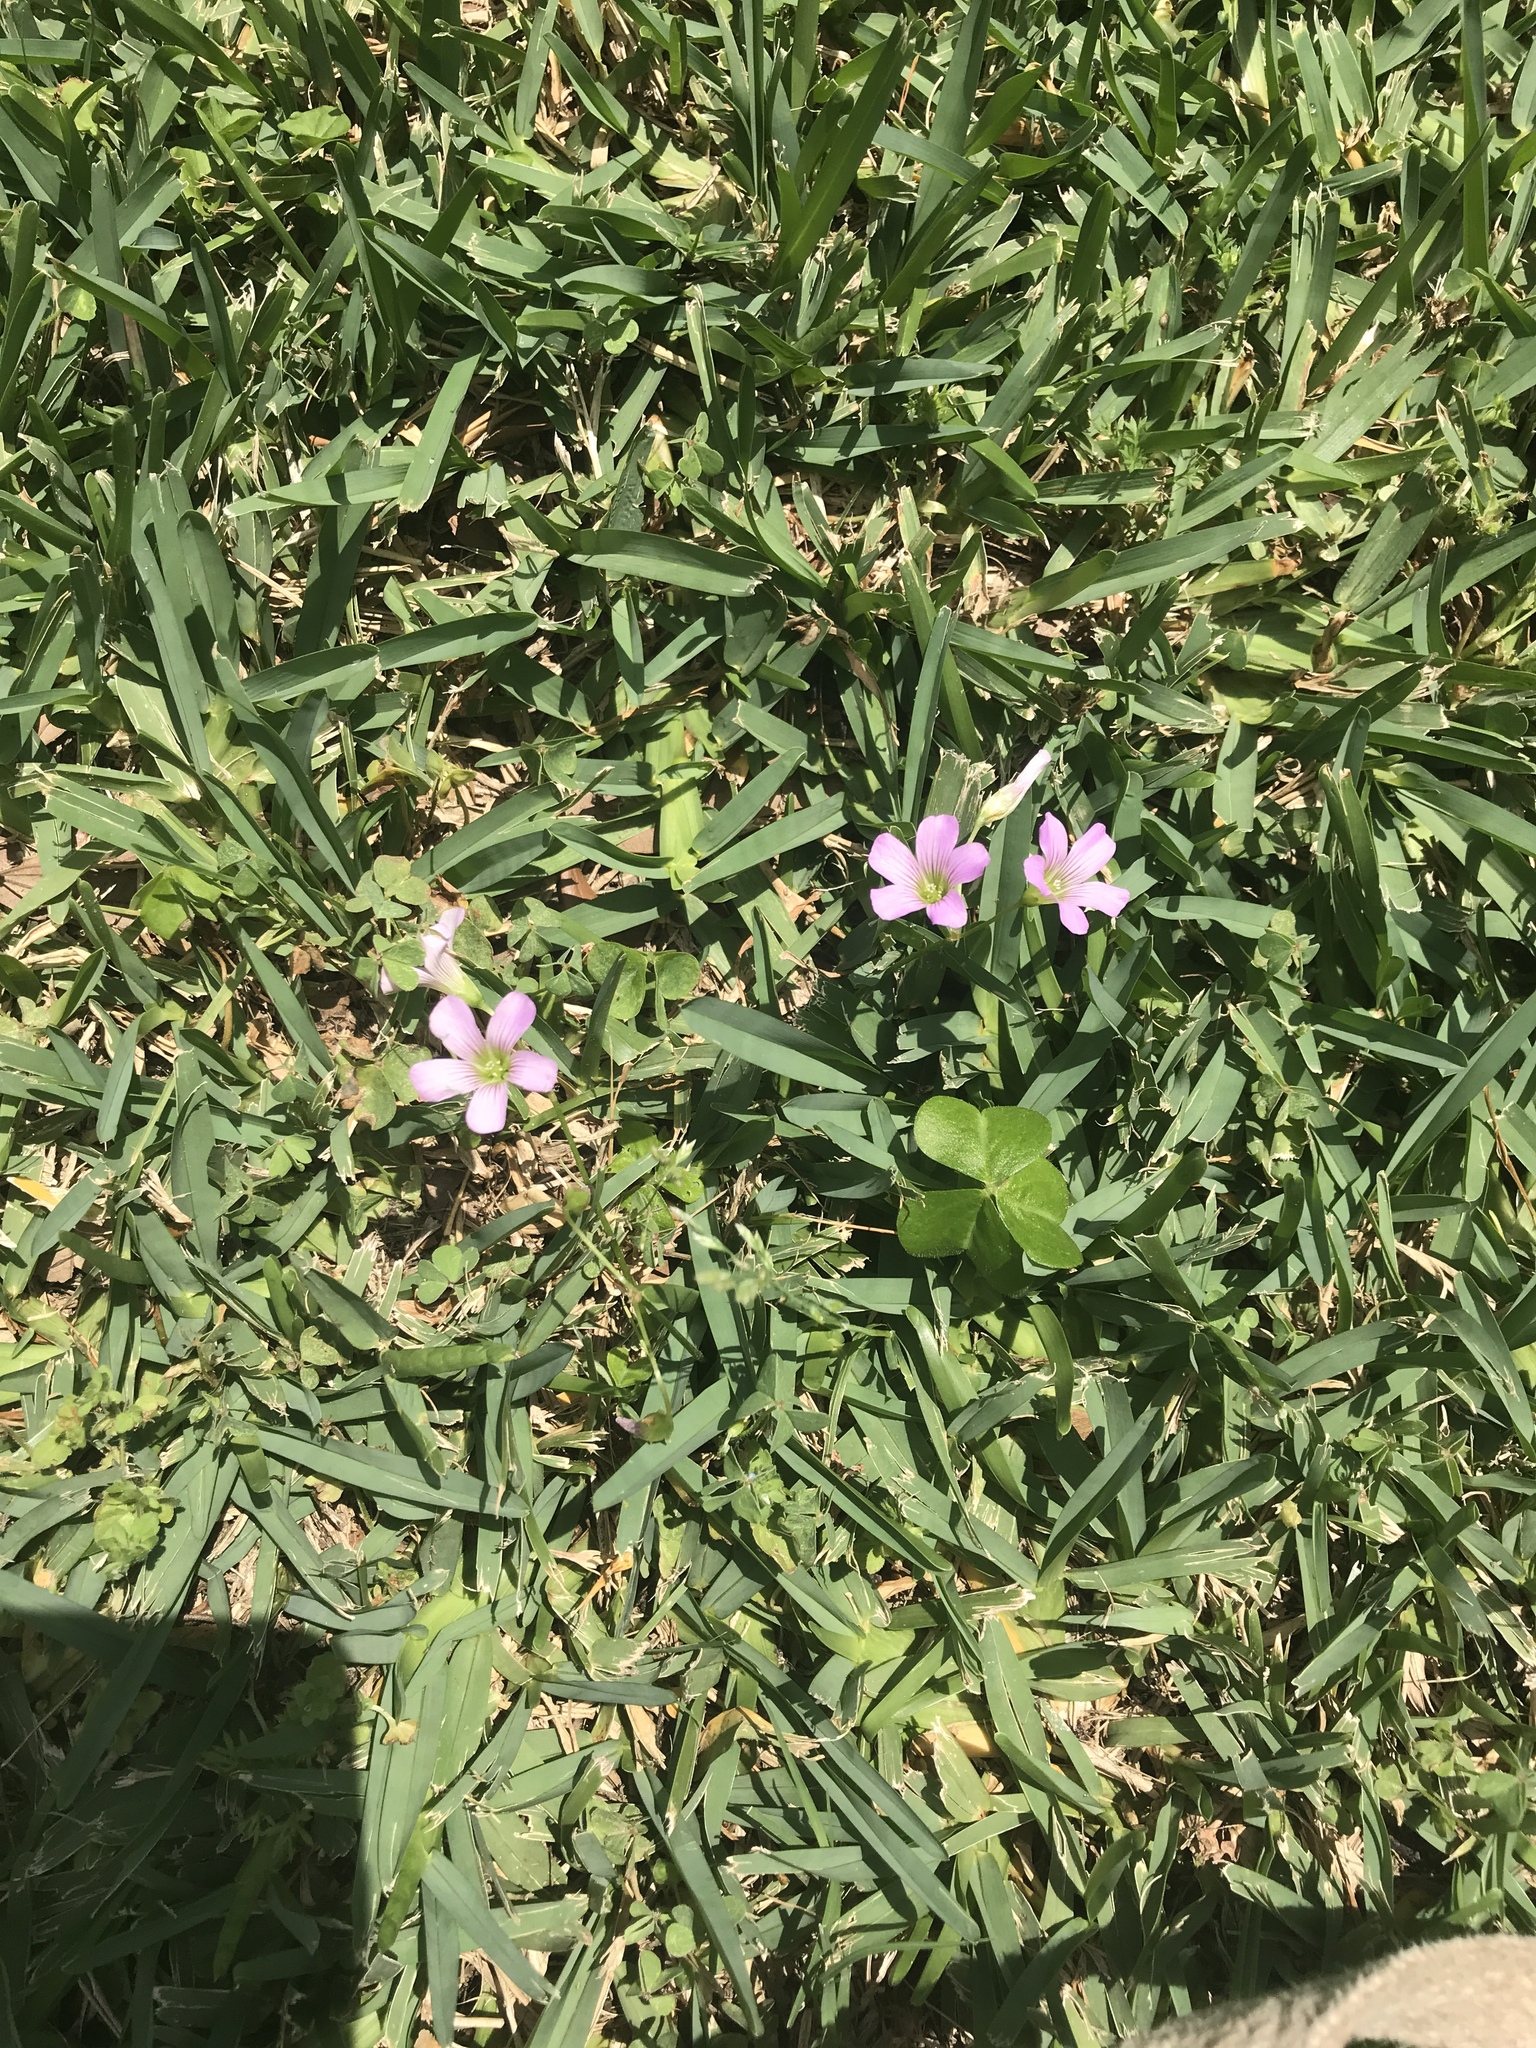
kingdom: Plantae
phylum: Tracheophyta
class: Magnoliopsida
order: Oxalidales
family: Oxalidaceae
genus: Oxalis
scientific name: Oxalis debilis
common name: Large-flowered pink-sorrel
